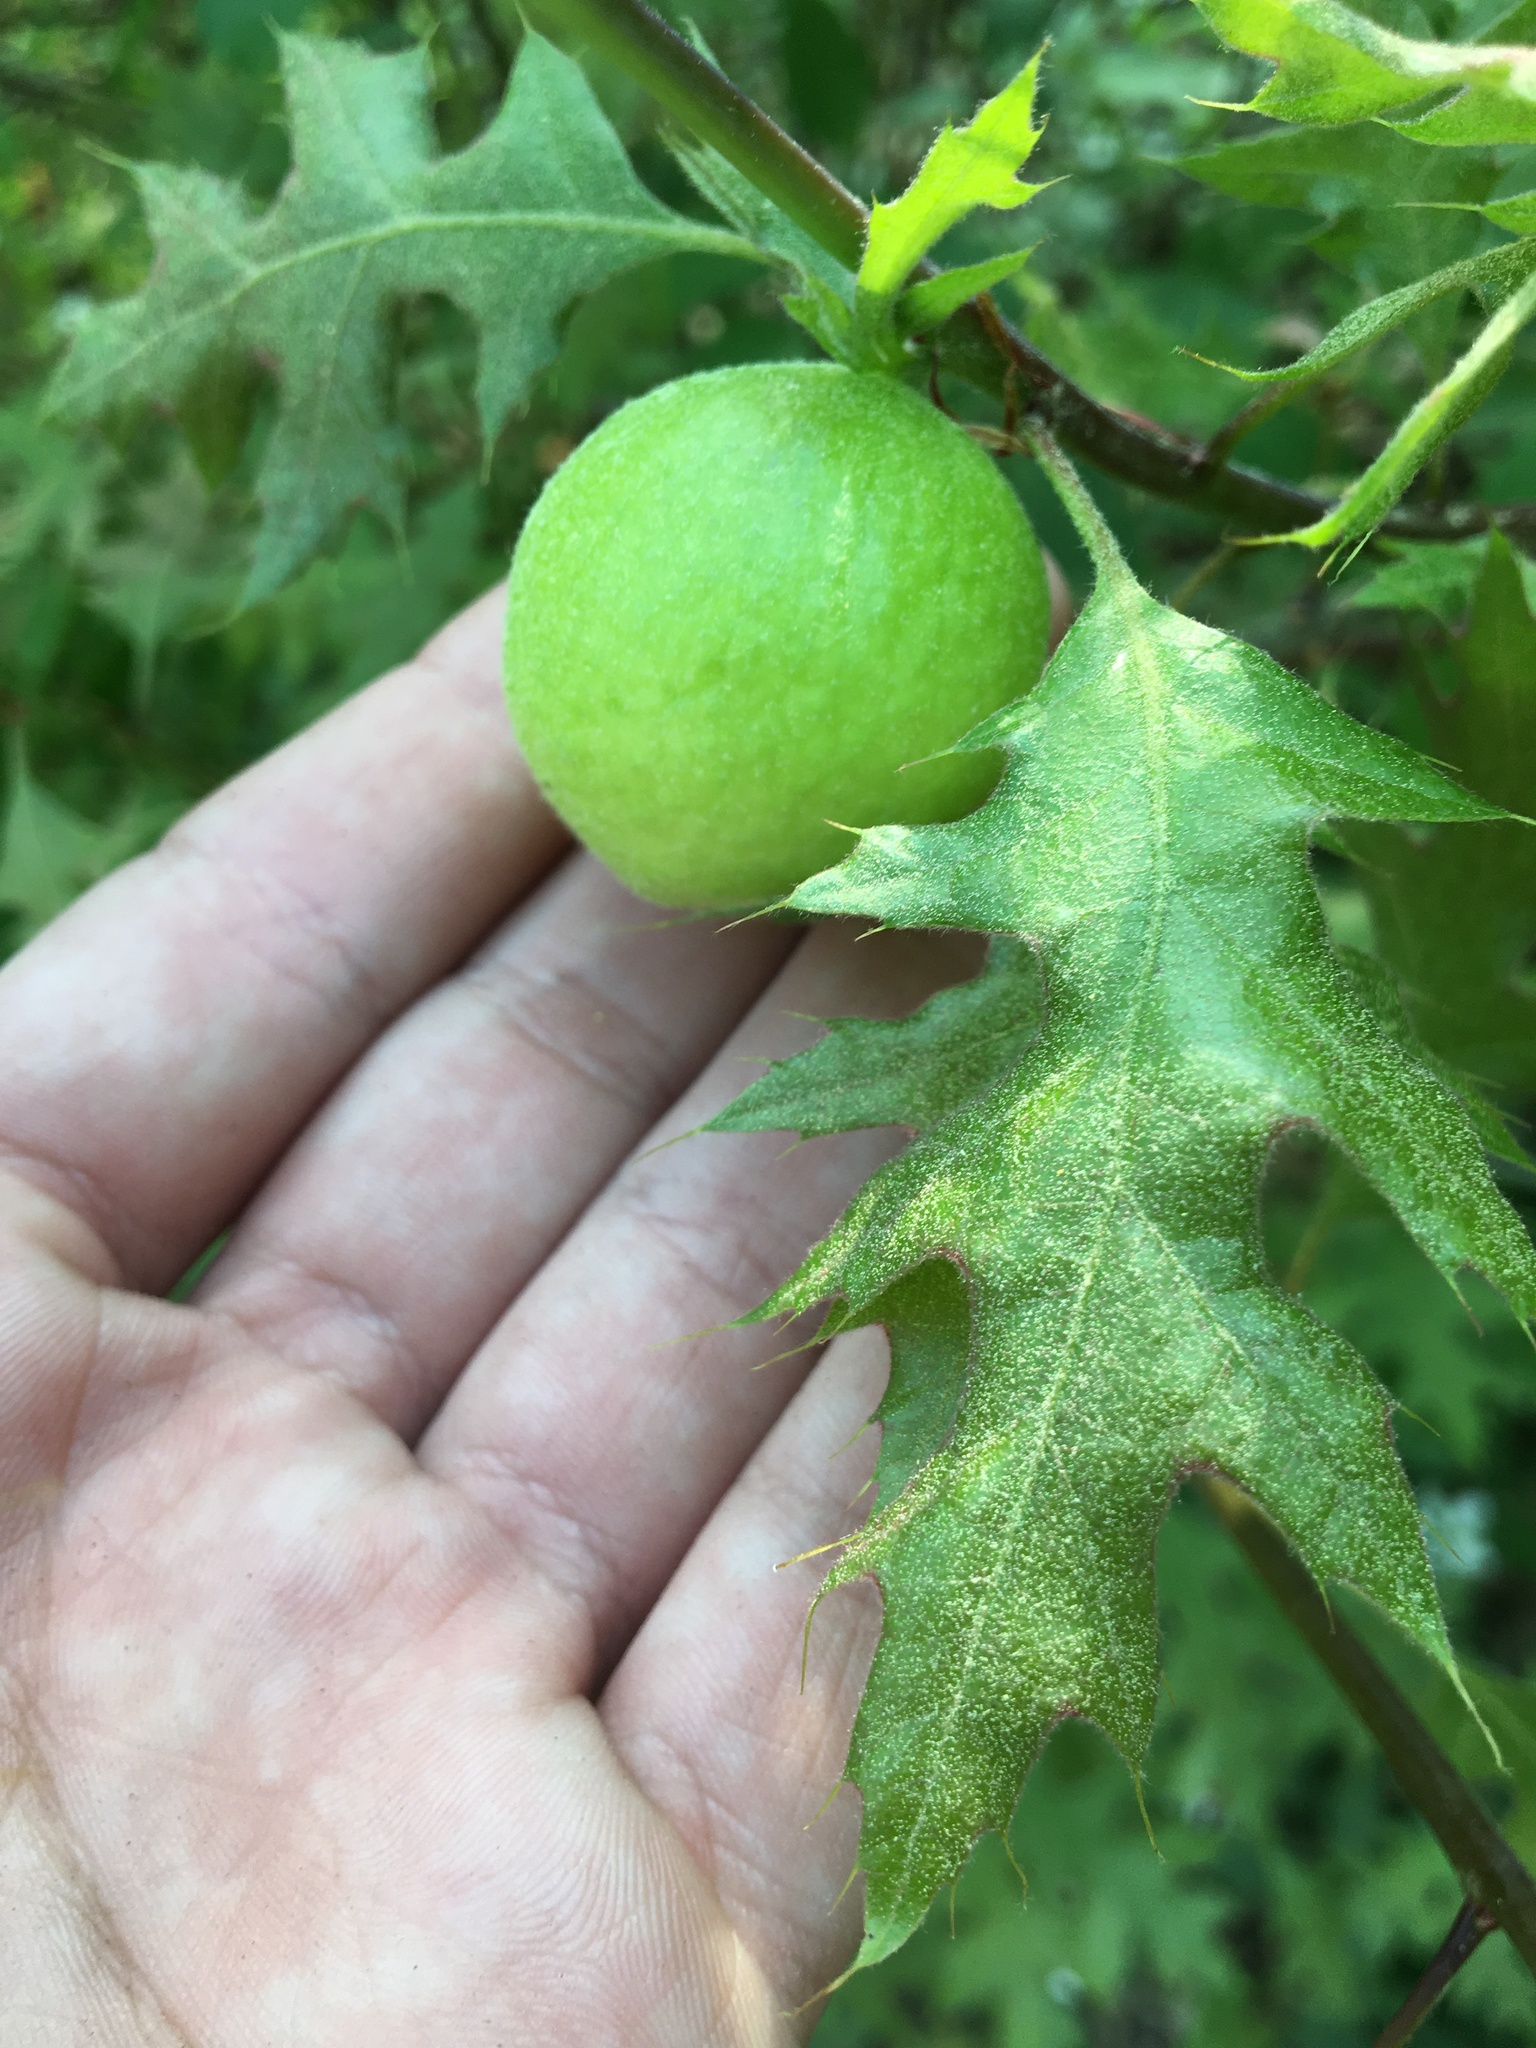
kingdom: Animalia
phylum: Arthropoda
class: Insecta
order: Hymenoptera
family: Cynipidae
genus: Amphibolips
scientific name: Amphibolips
